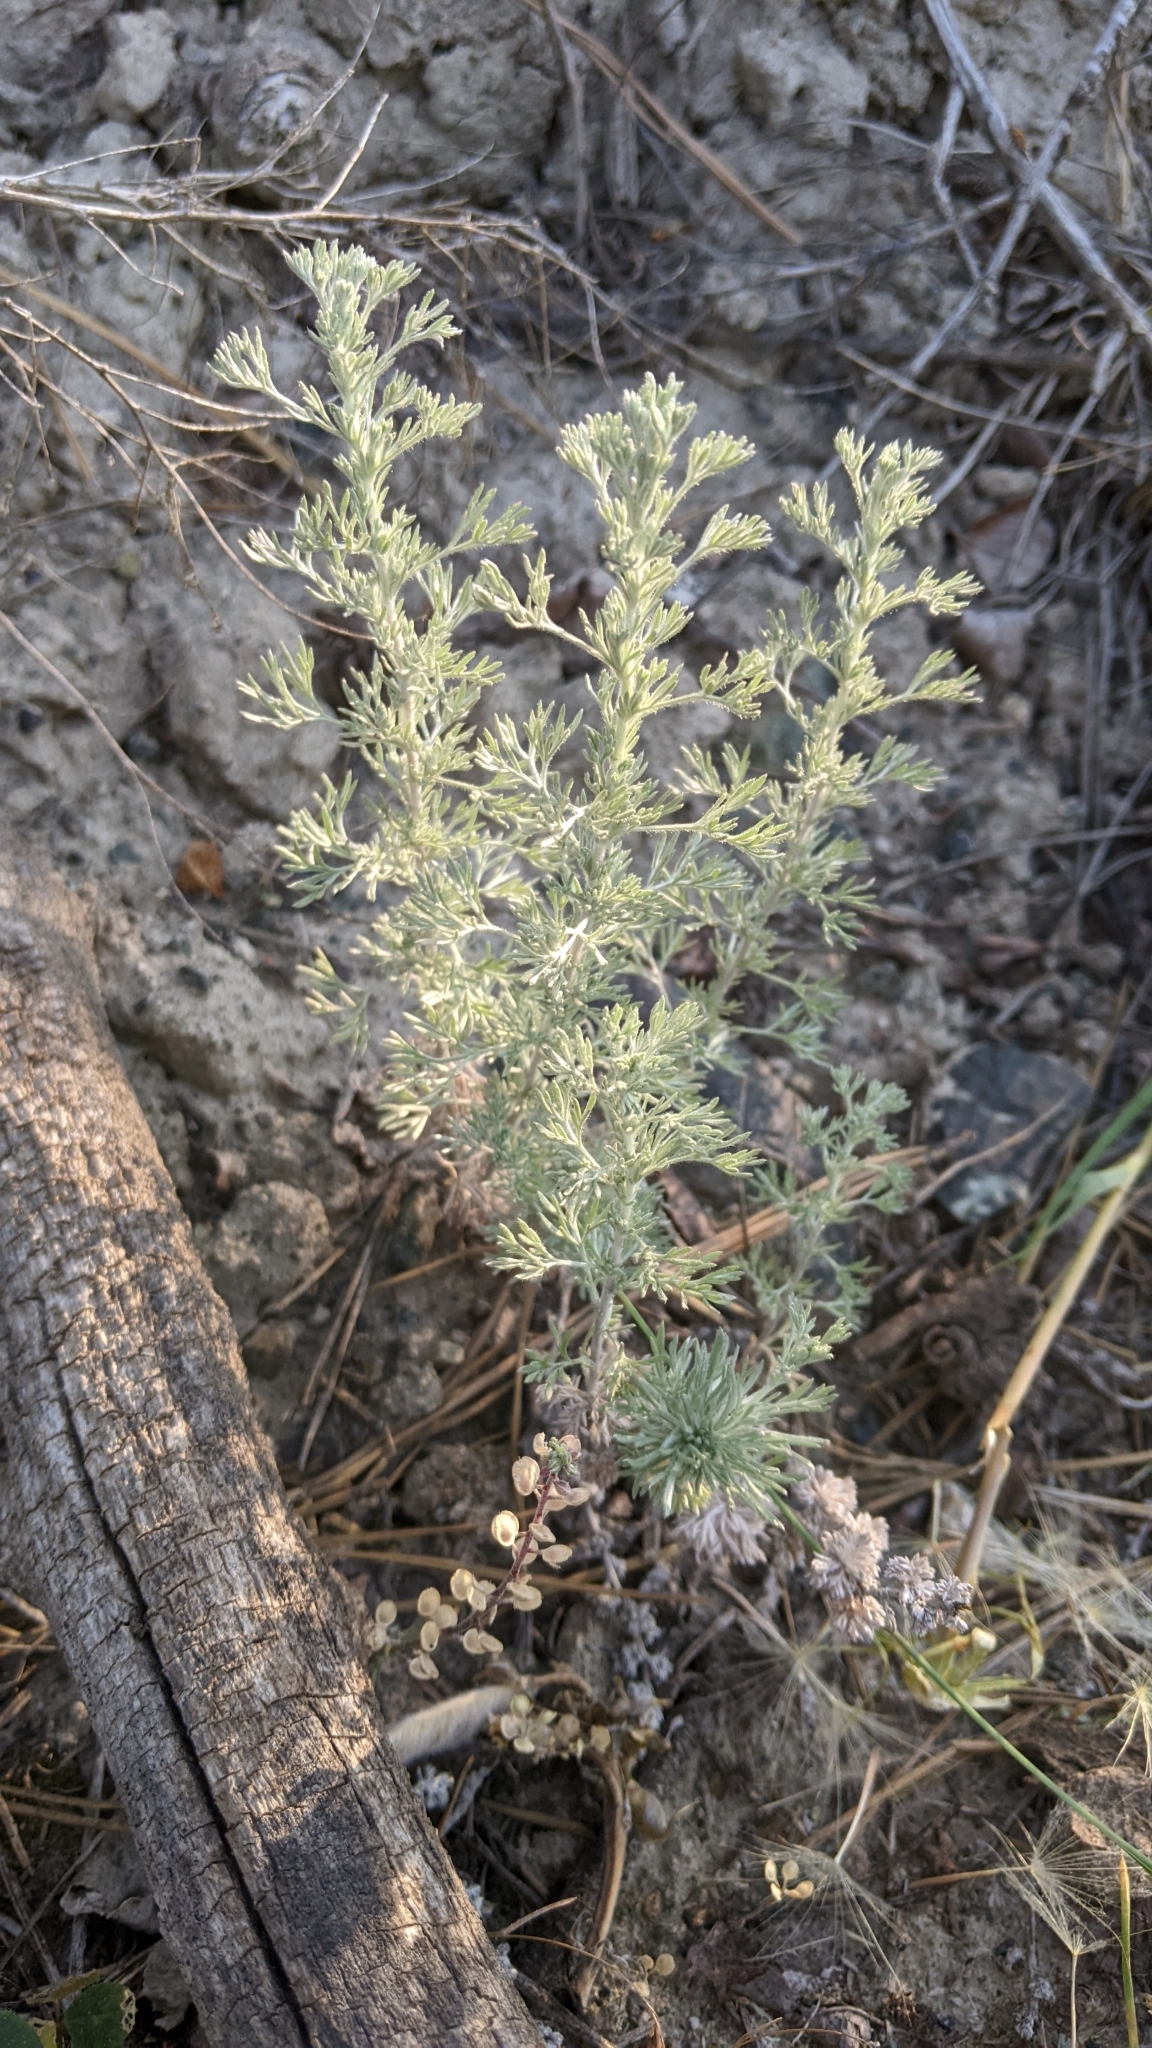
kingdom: Plantae
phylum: Tracheophyta
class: Magnoliopsida
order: Asterales
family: Asteraceae
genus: Artemisia
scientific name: Artemisia frigida
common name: Prairie sagewort
